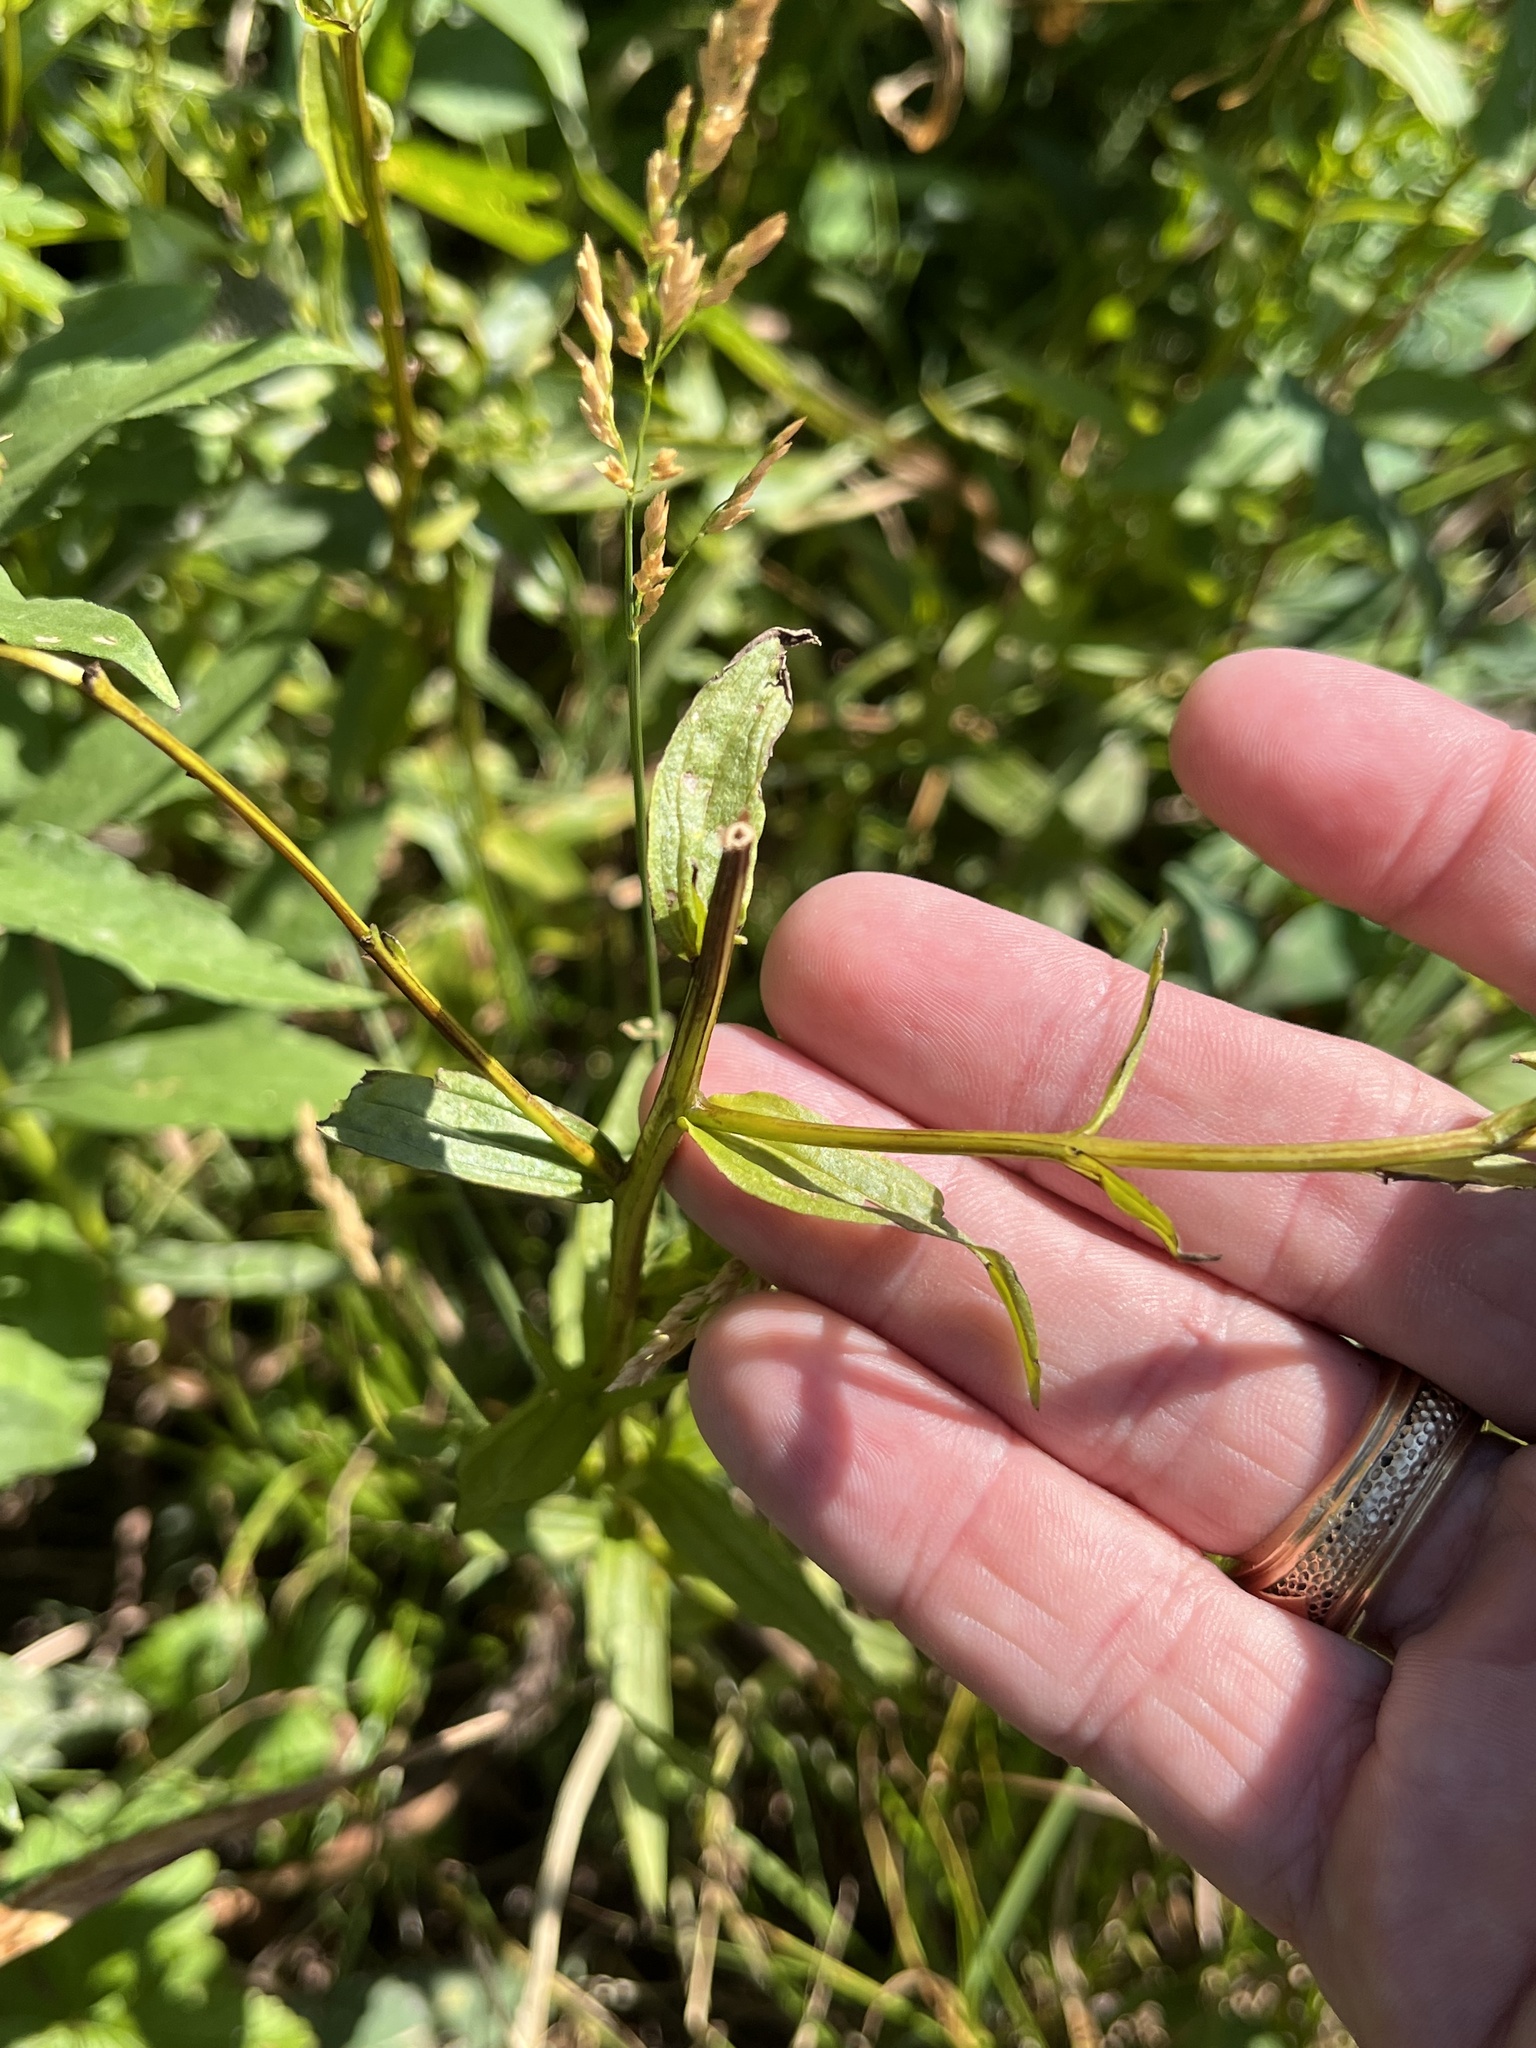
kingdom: Plantae
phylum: Tracheophyta
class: Magnoliopsida
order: Lamiales
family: Orobanchaceae
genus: Castilleja
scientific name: Castilleja miniata
